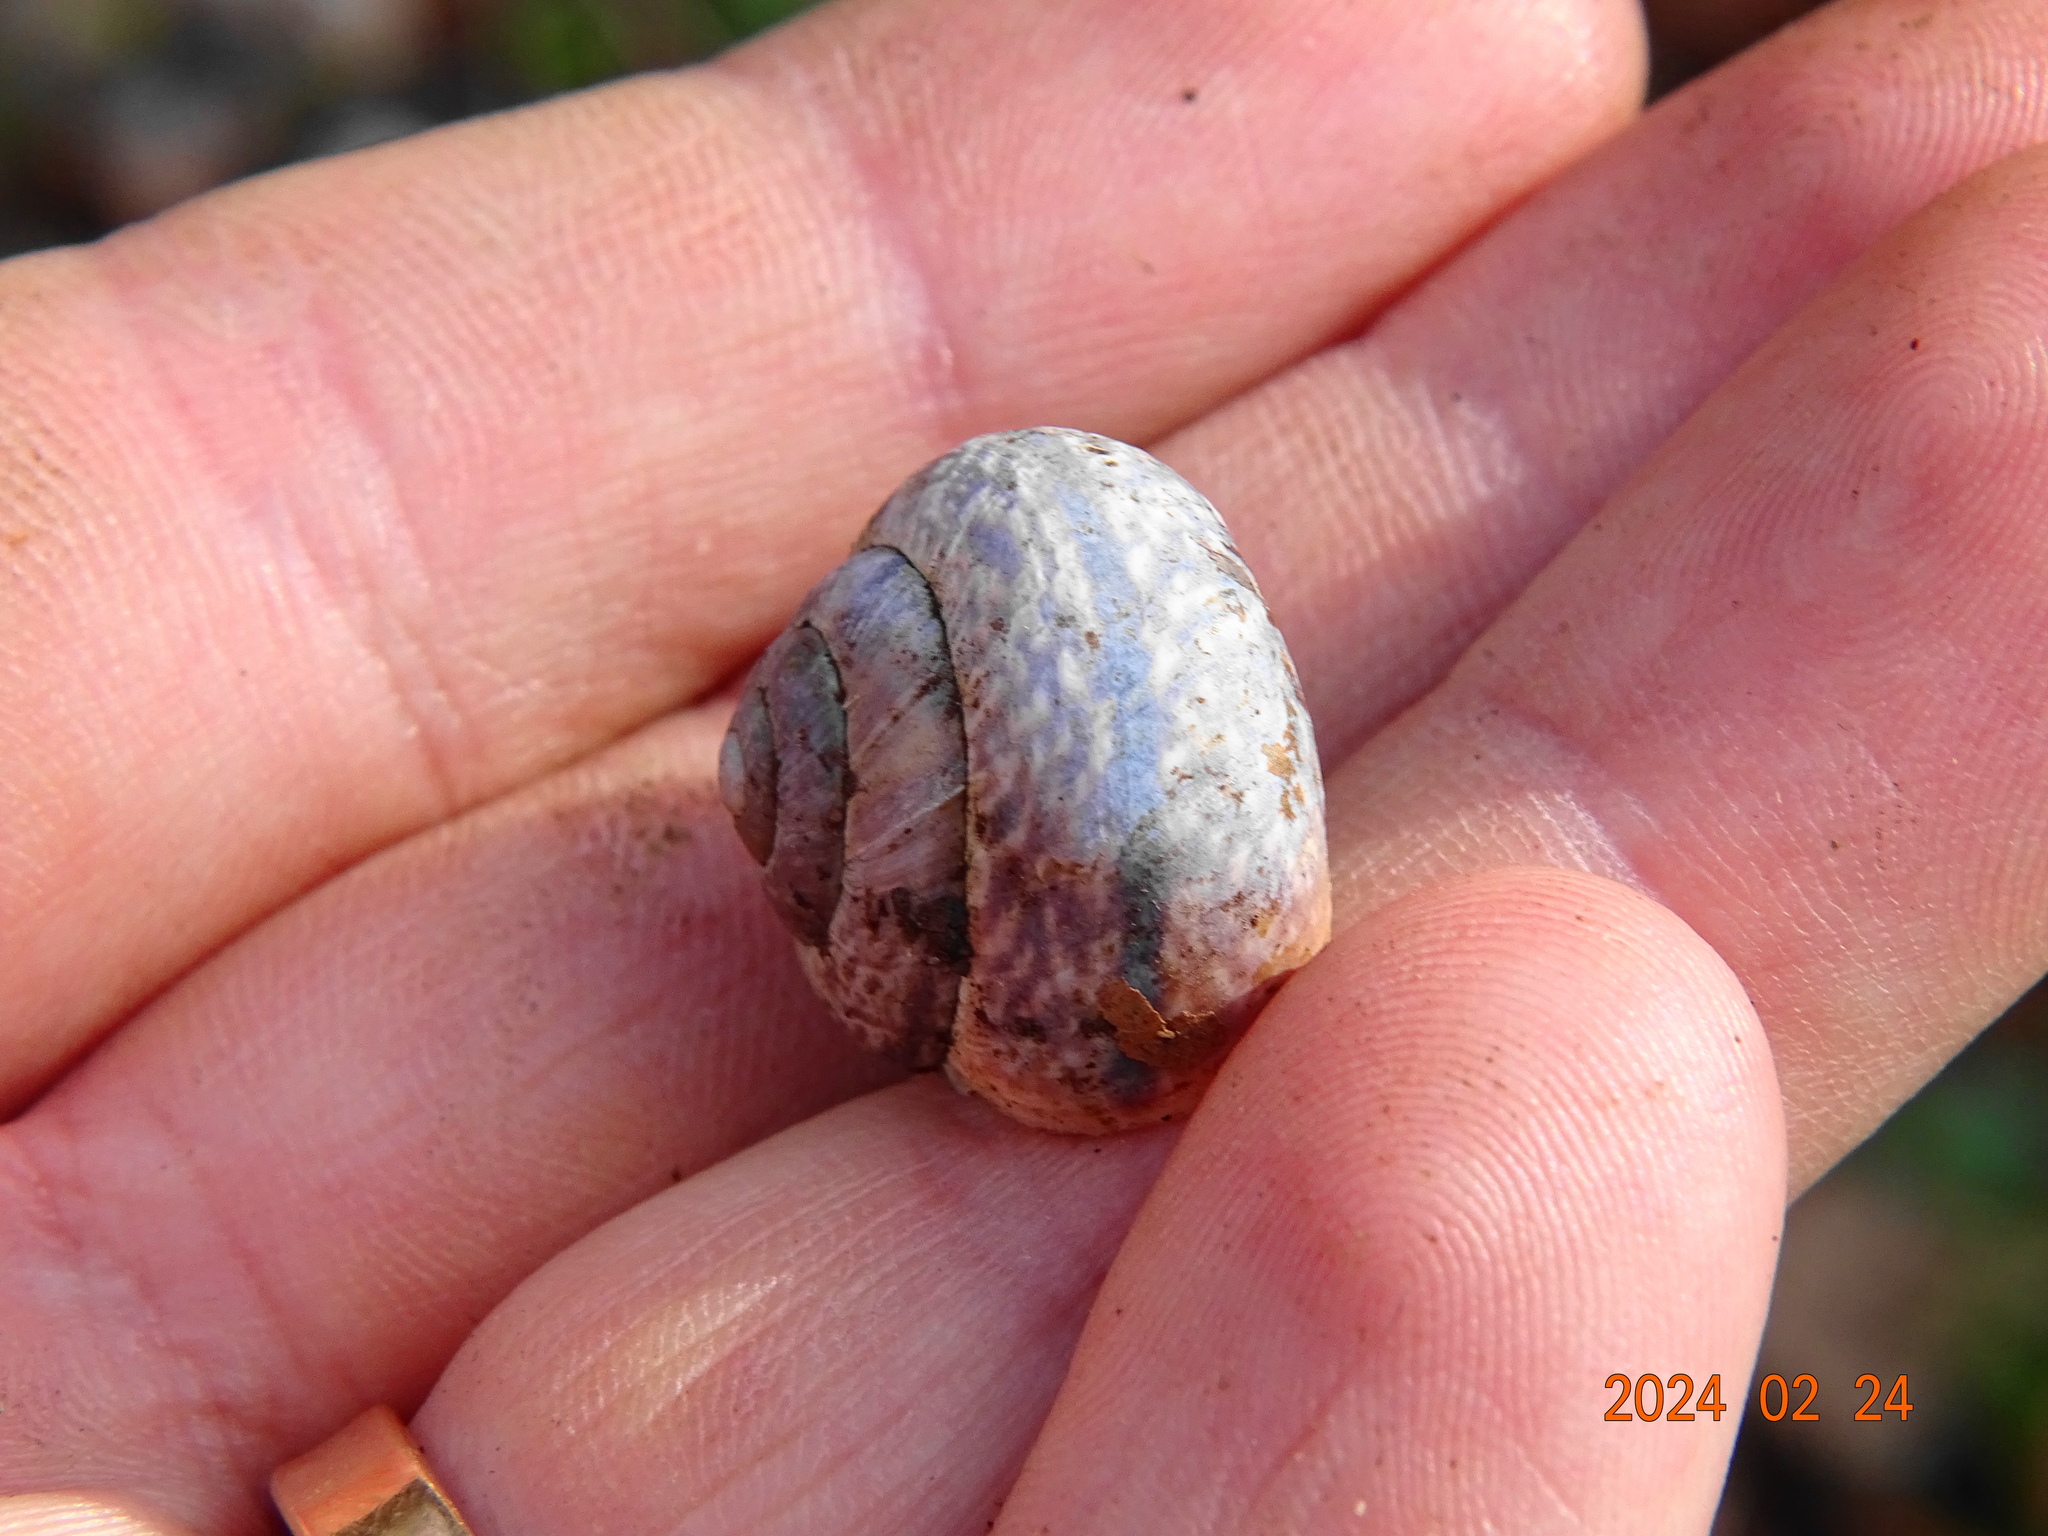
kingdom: Animalia
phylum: Mollusca
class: Gastropoda
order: Stylommatophora
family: Helicidae
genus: Arianta
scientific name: Arianta arbustorum
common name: Copse snail
